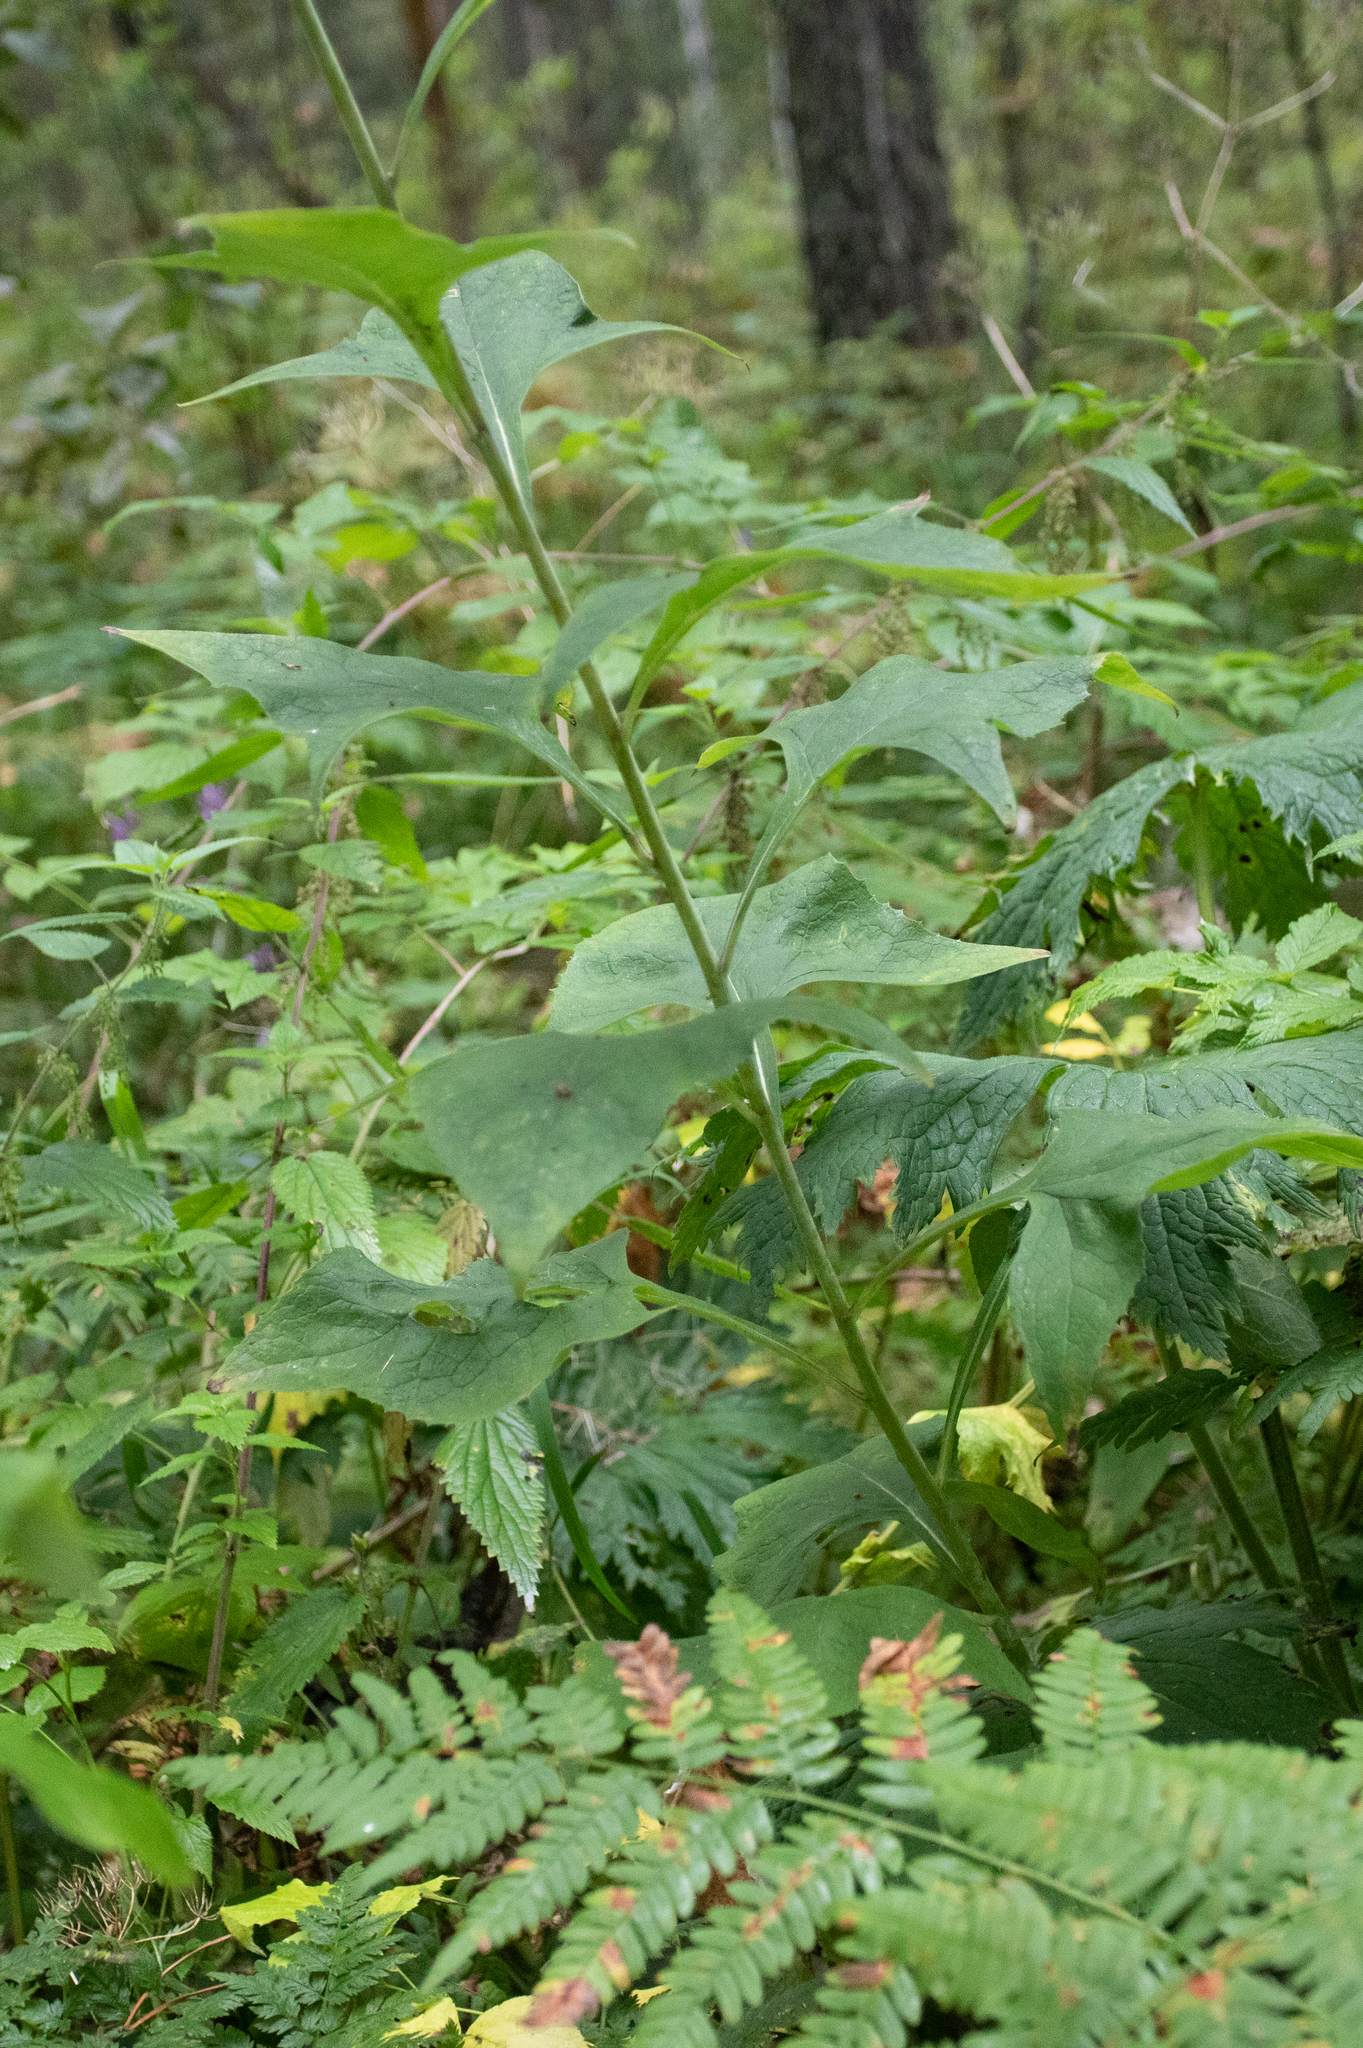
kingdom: Plantae
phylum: Tracheophyta
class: Magnoliopsida
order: Asterales
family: Asteraceae
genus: Parasenecio
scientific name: Parasenecio hastatus
